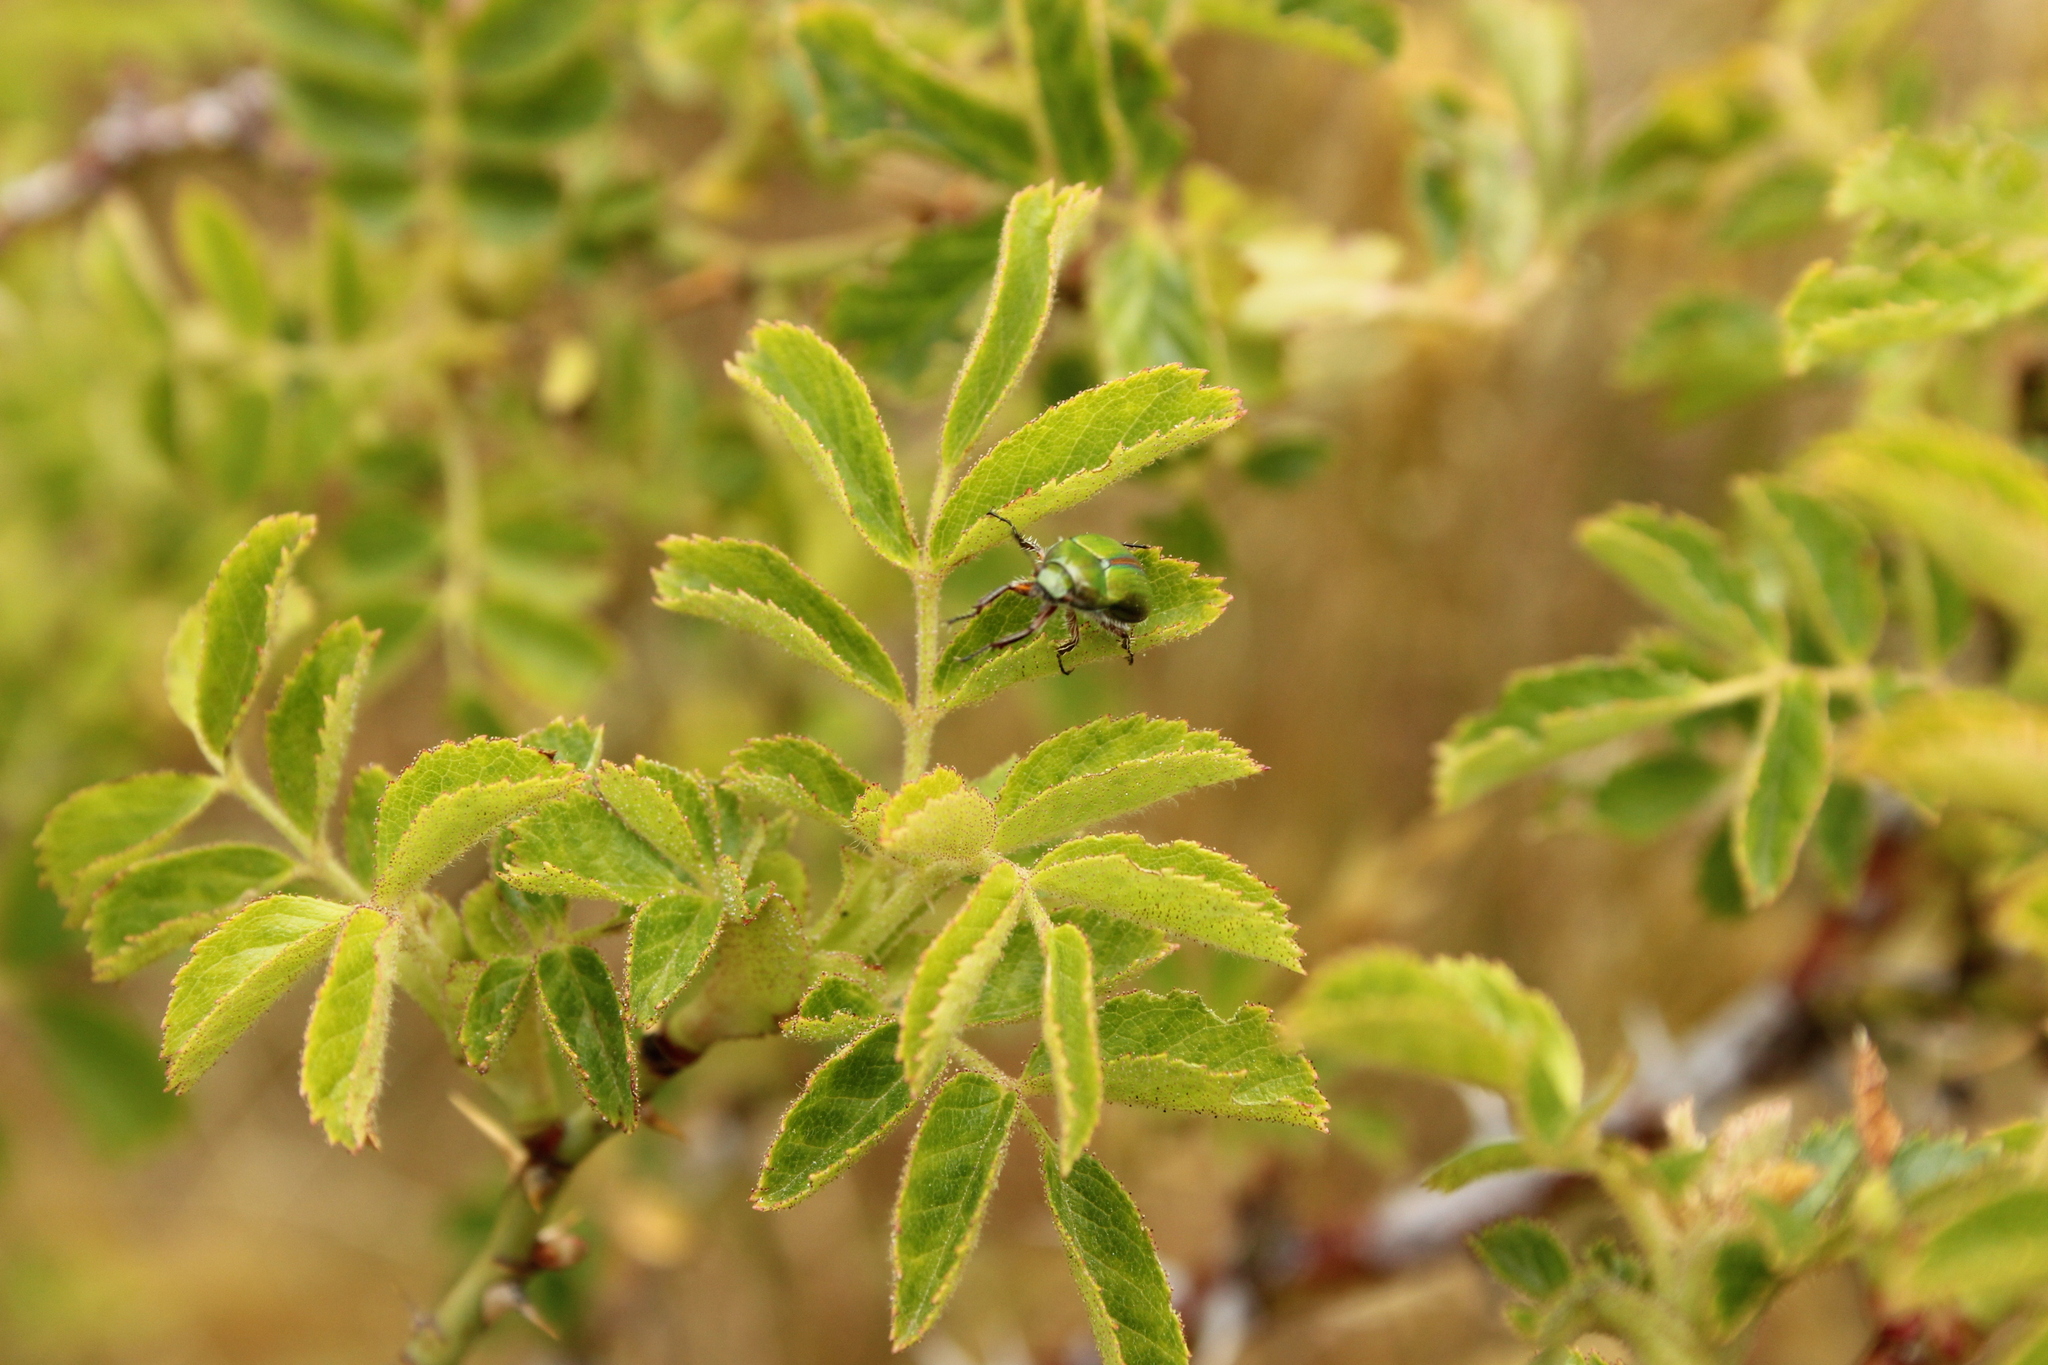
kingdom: Plantae
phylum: Tracheophyta
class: Magnoliopsida
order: Rosales
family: Rosaceae
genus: Rosa
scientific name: Rosa rubiginosa
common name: Sweet-briar
